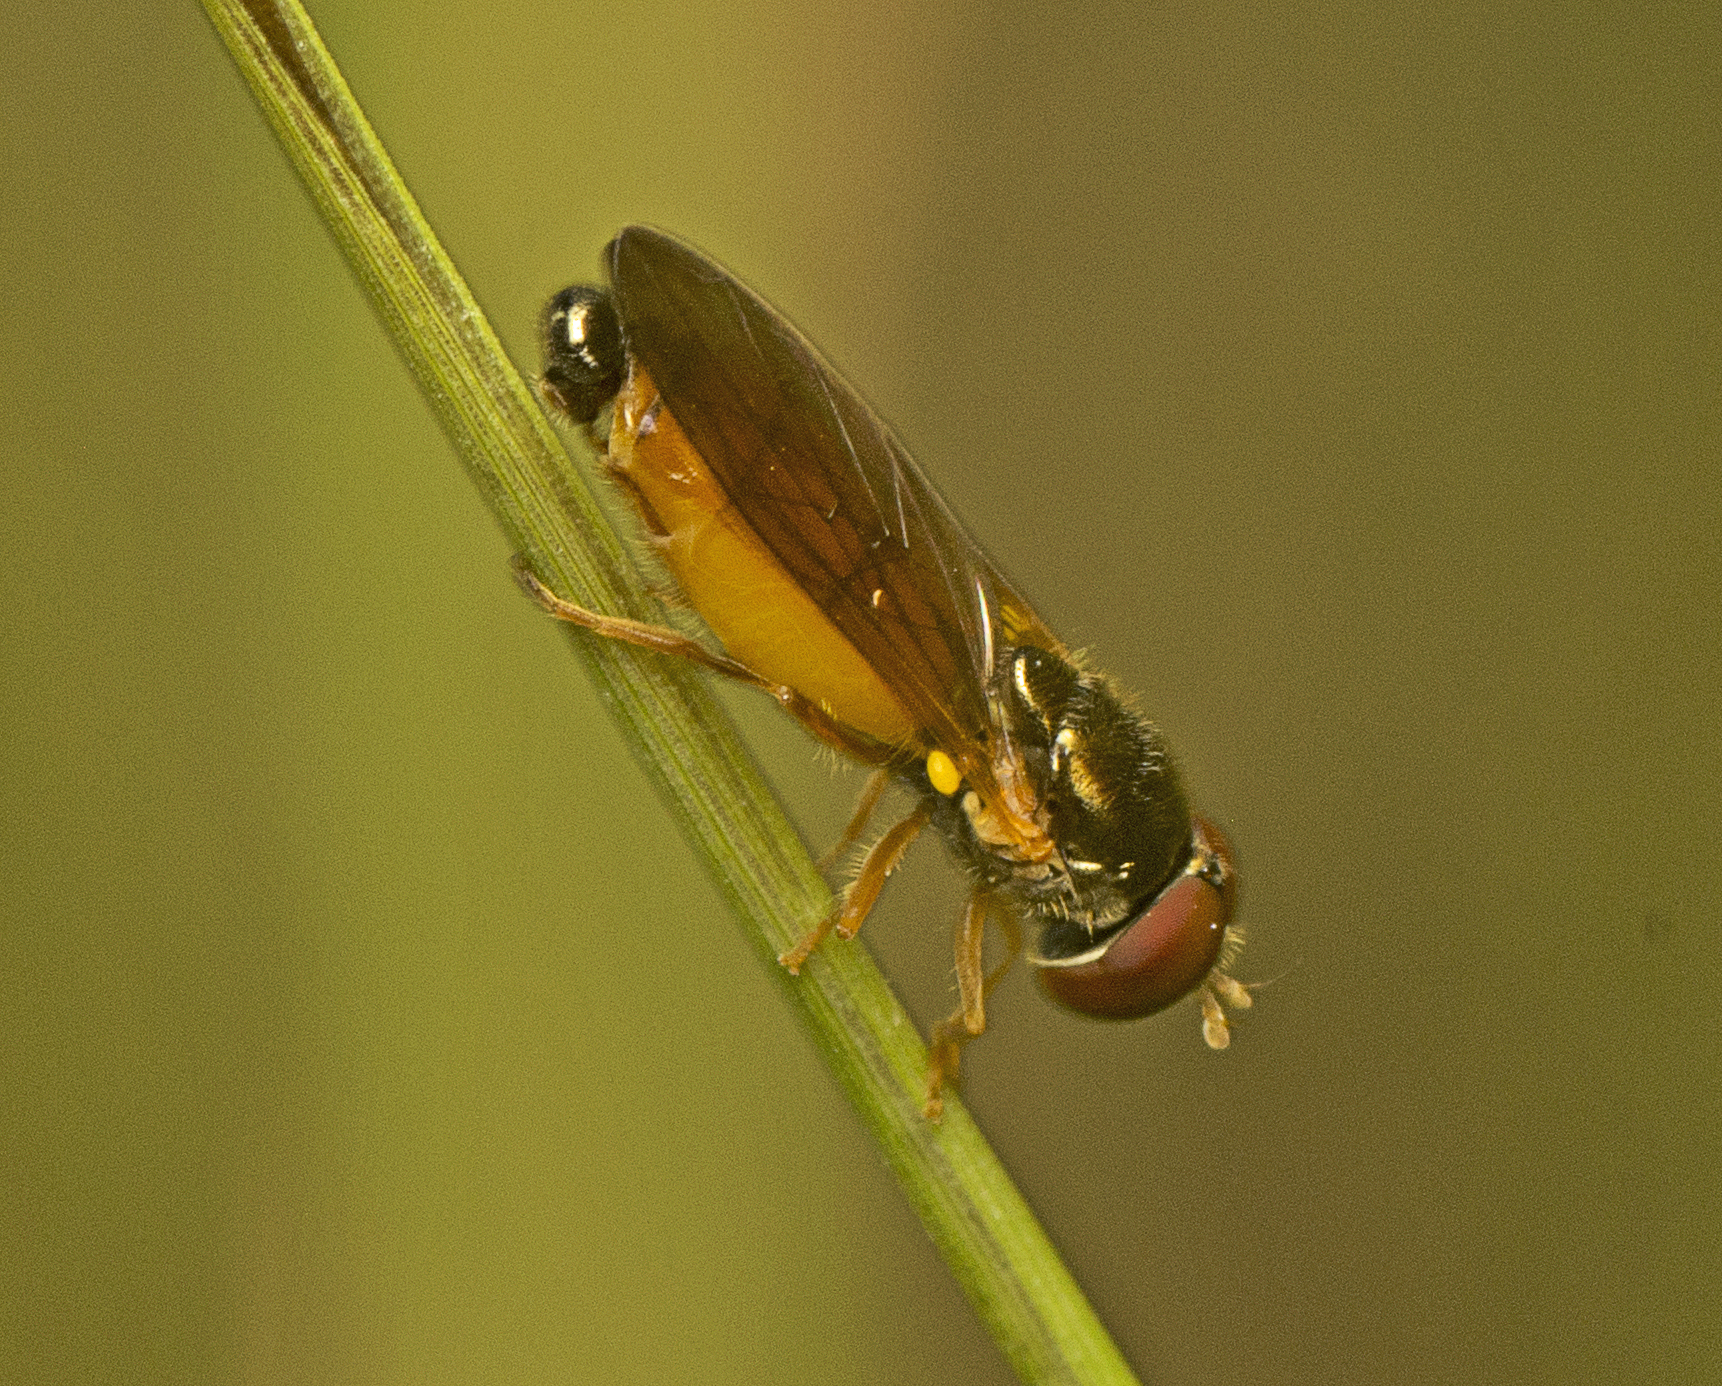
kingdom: Animalia
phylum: Arthropoda
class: Insecta
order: Diptera
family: Syrphidae
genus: Melanostoma
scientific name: Melanostoma apicale
